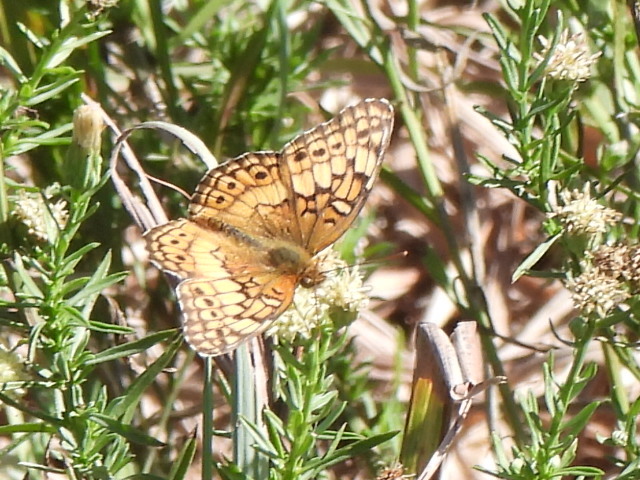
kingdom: Animalia
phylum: Arthropoda
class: Insecta
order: Lepidoptera
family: Nymphalidae
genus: Euptoieta
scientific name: Euptoieta claudia
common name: Variegated fritillary
